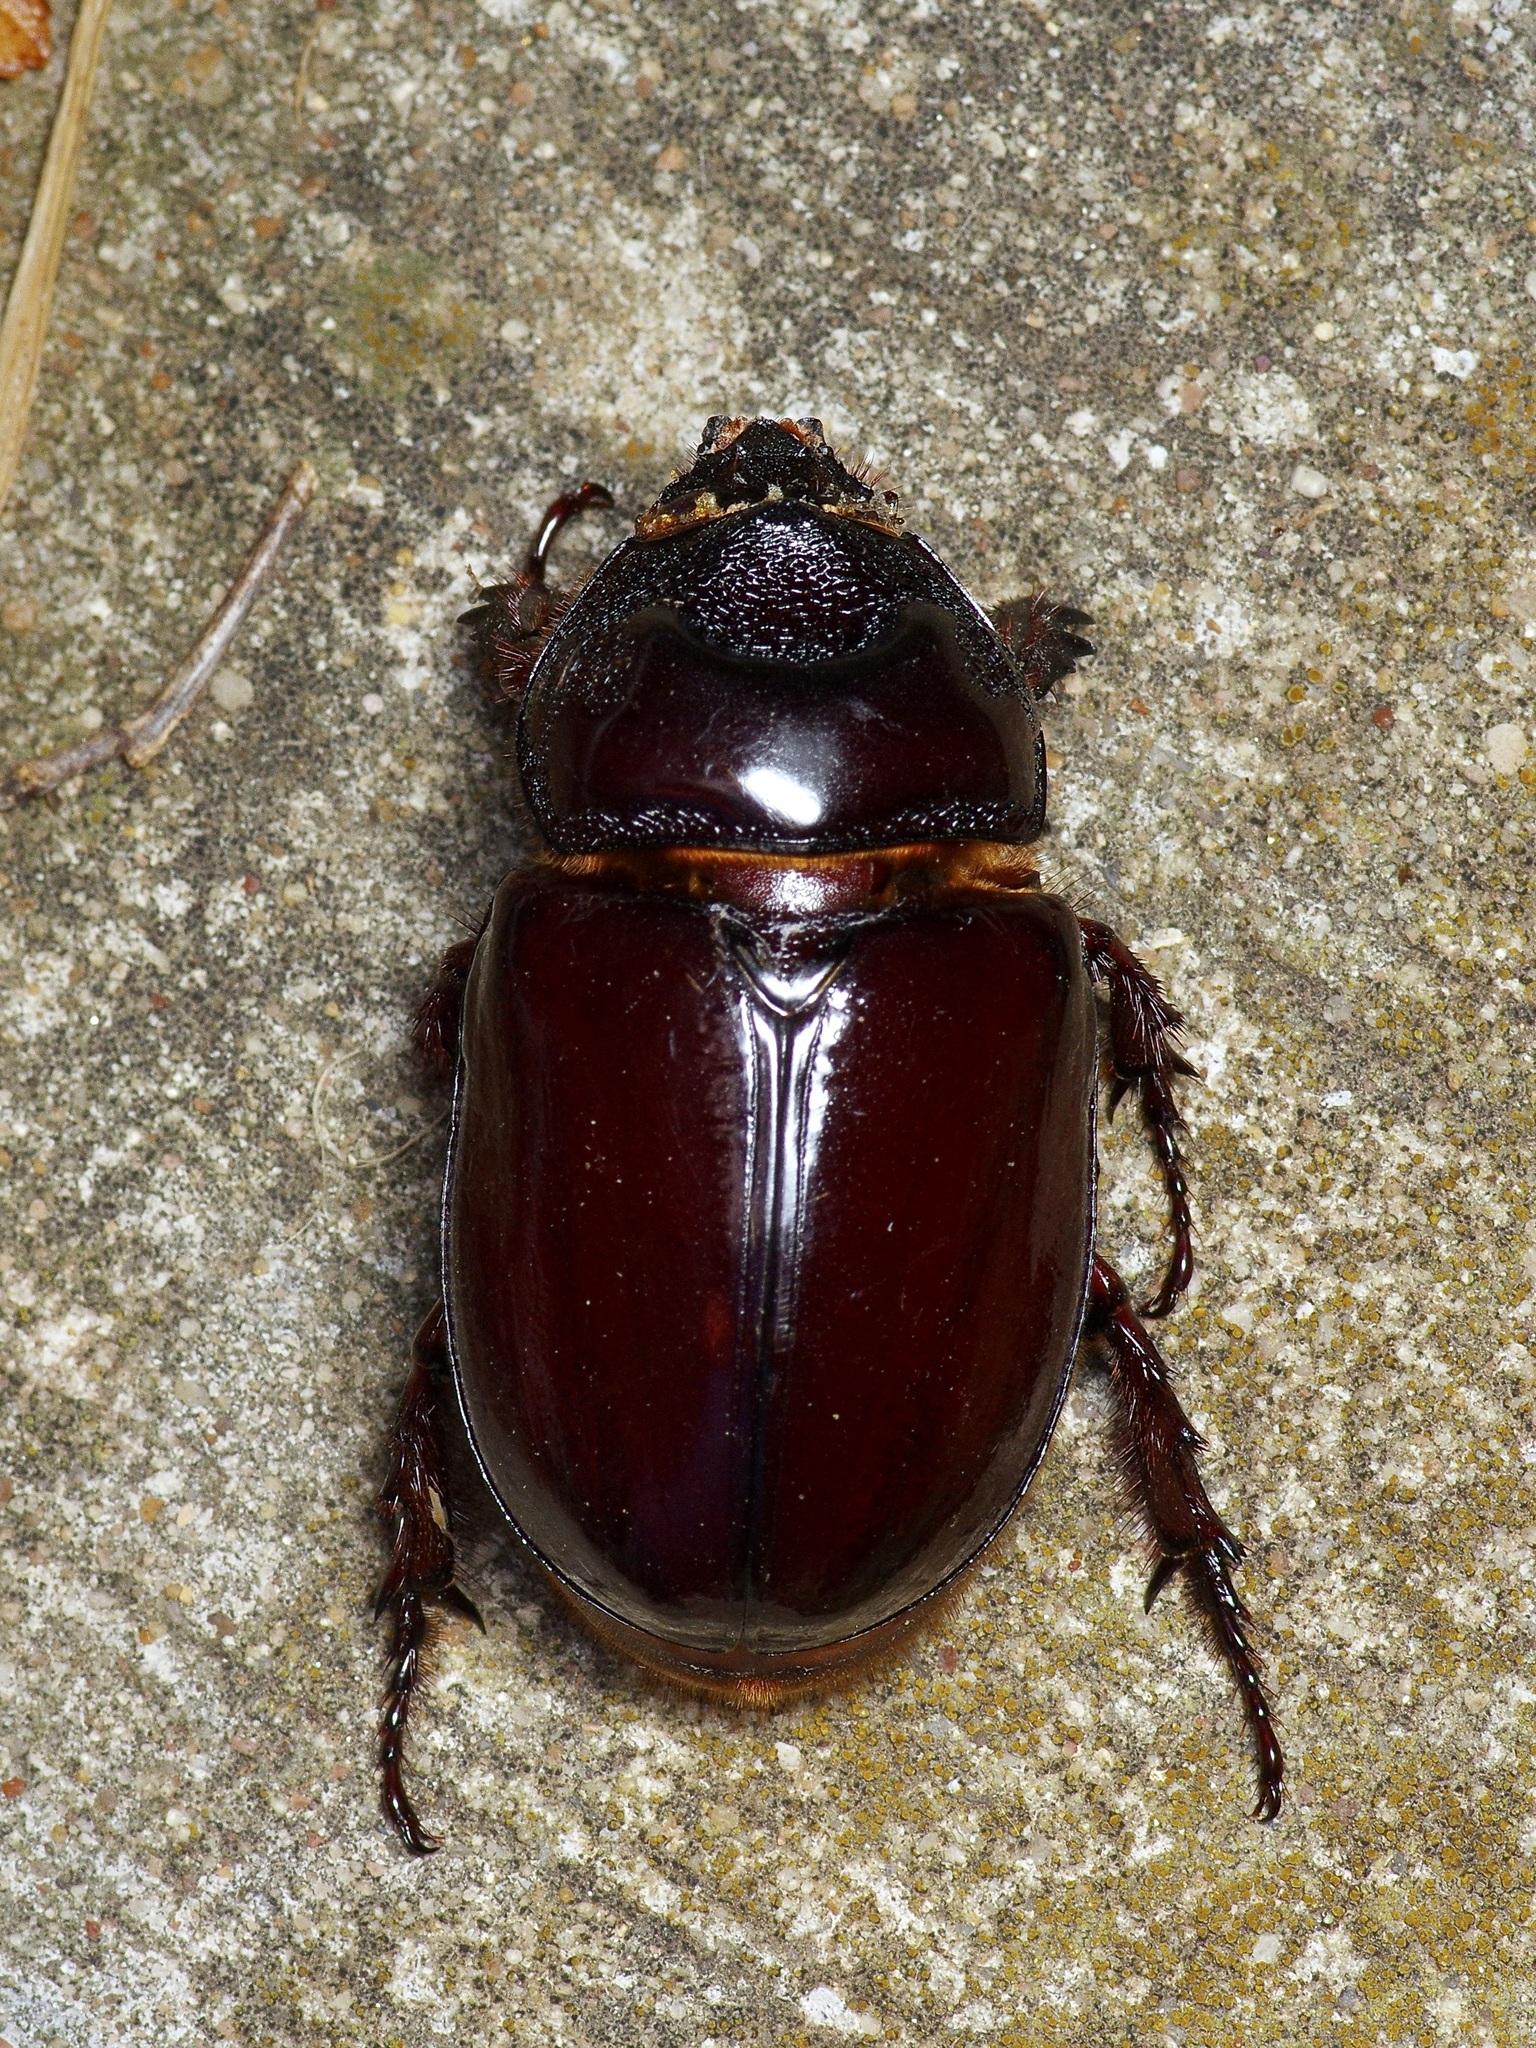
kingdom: Animalia
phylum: Arthropoda
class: Insecta
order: Coleoptera
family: Scarabaeidae
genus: Strategus
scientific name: Strategus aloeus
